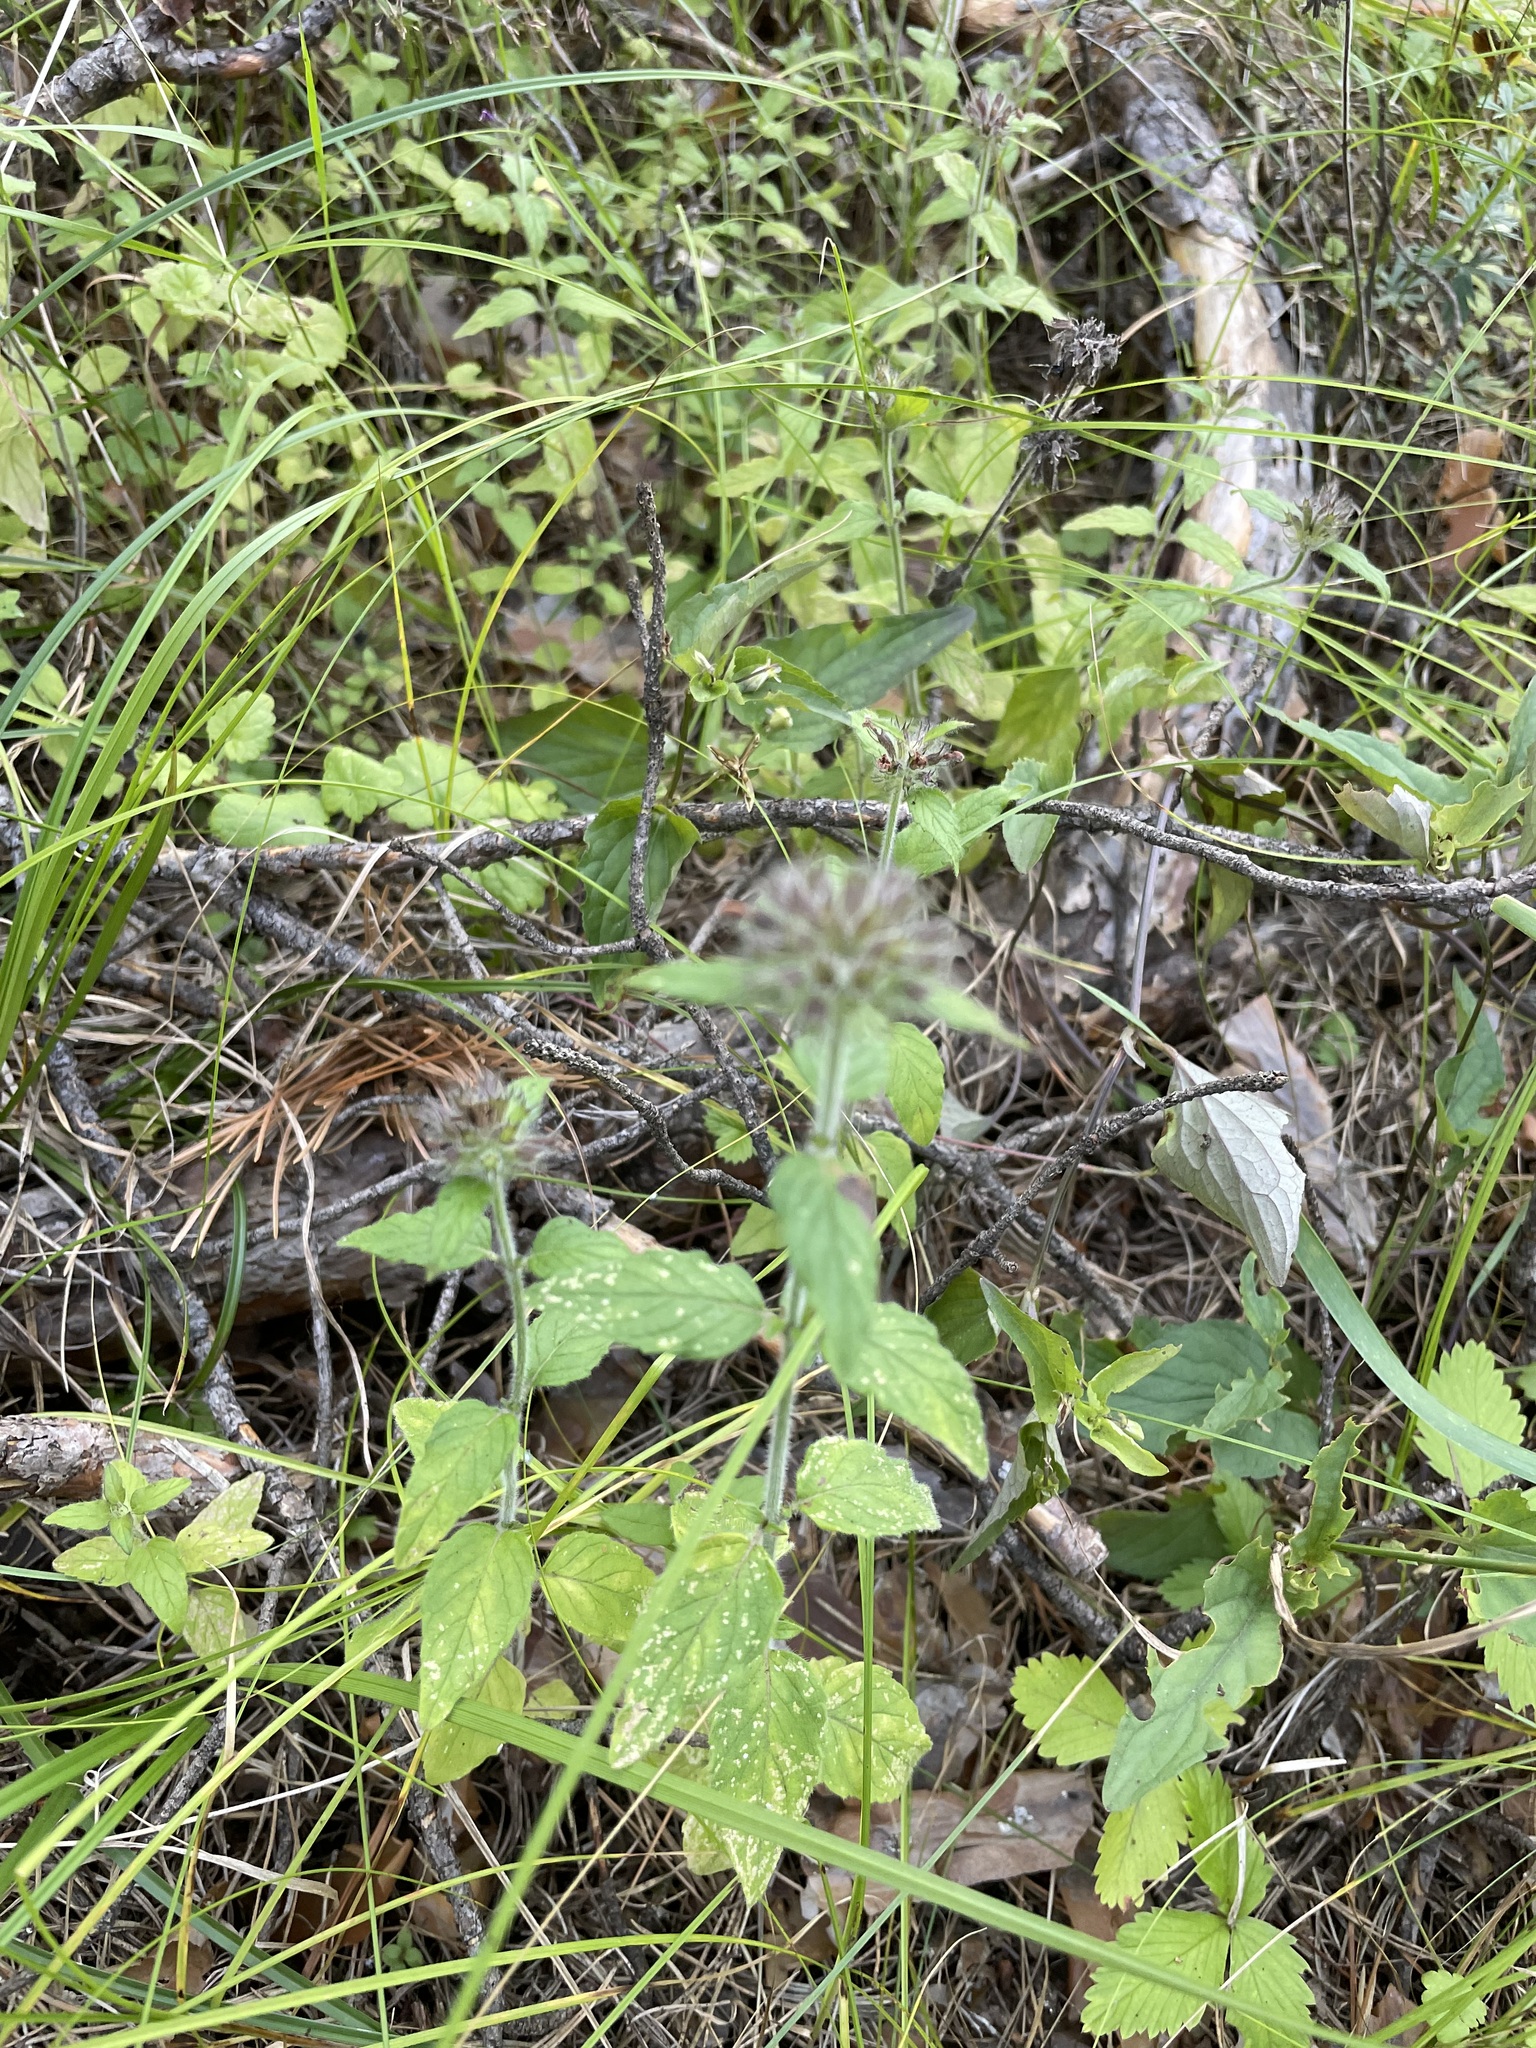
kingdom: Plantae
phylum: Tracheophyta
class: Magnoliopsida
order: Lamiales
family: Lamiaceae
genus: Clinopodium
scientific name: Clinopodium vulgare
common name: Wild basil
